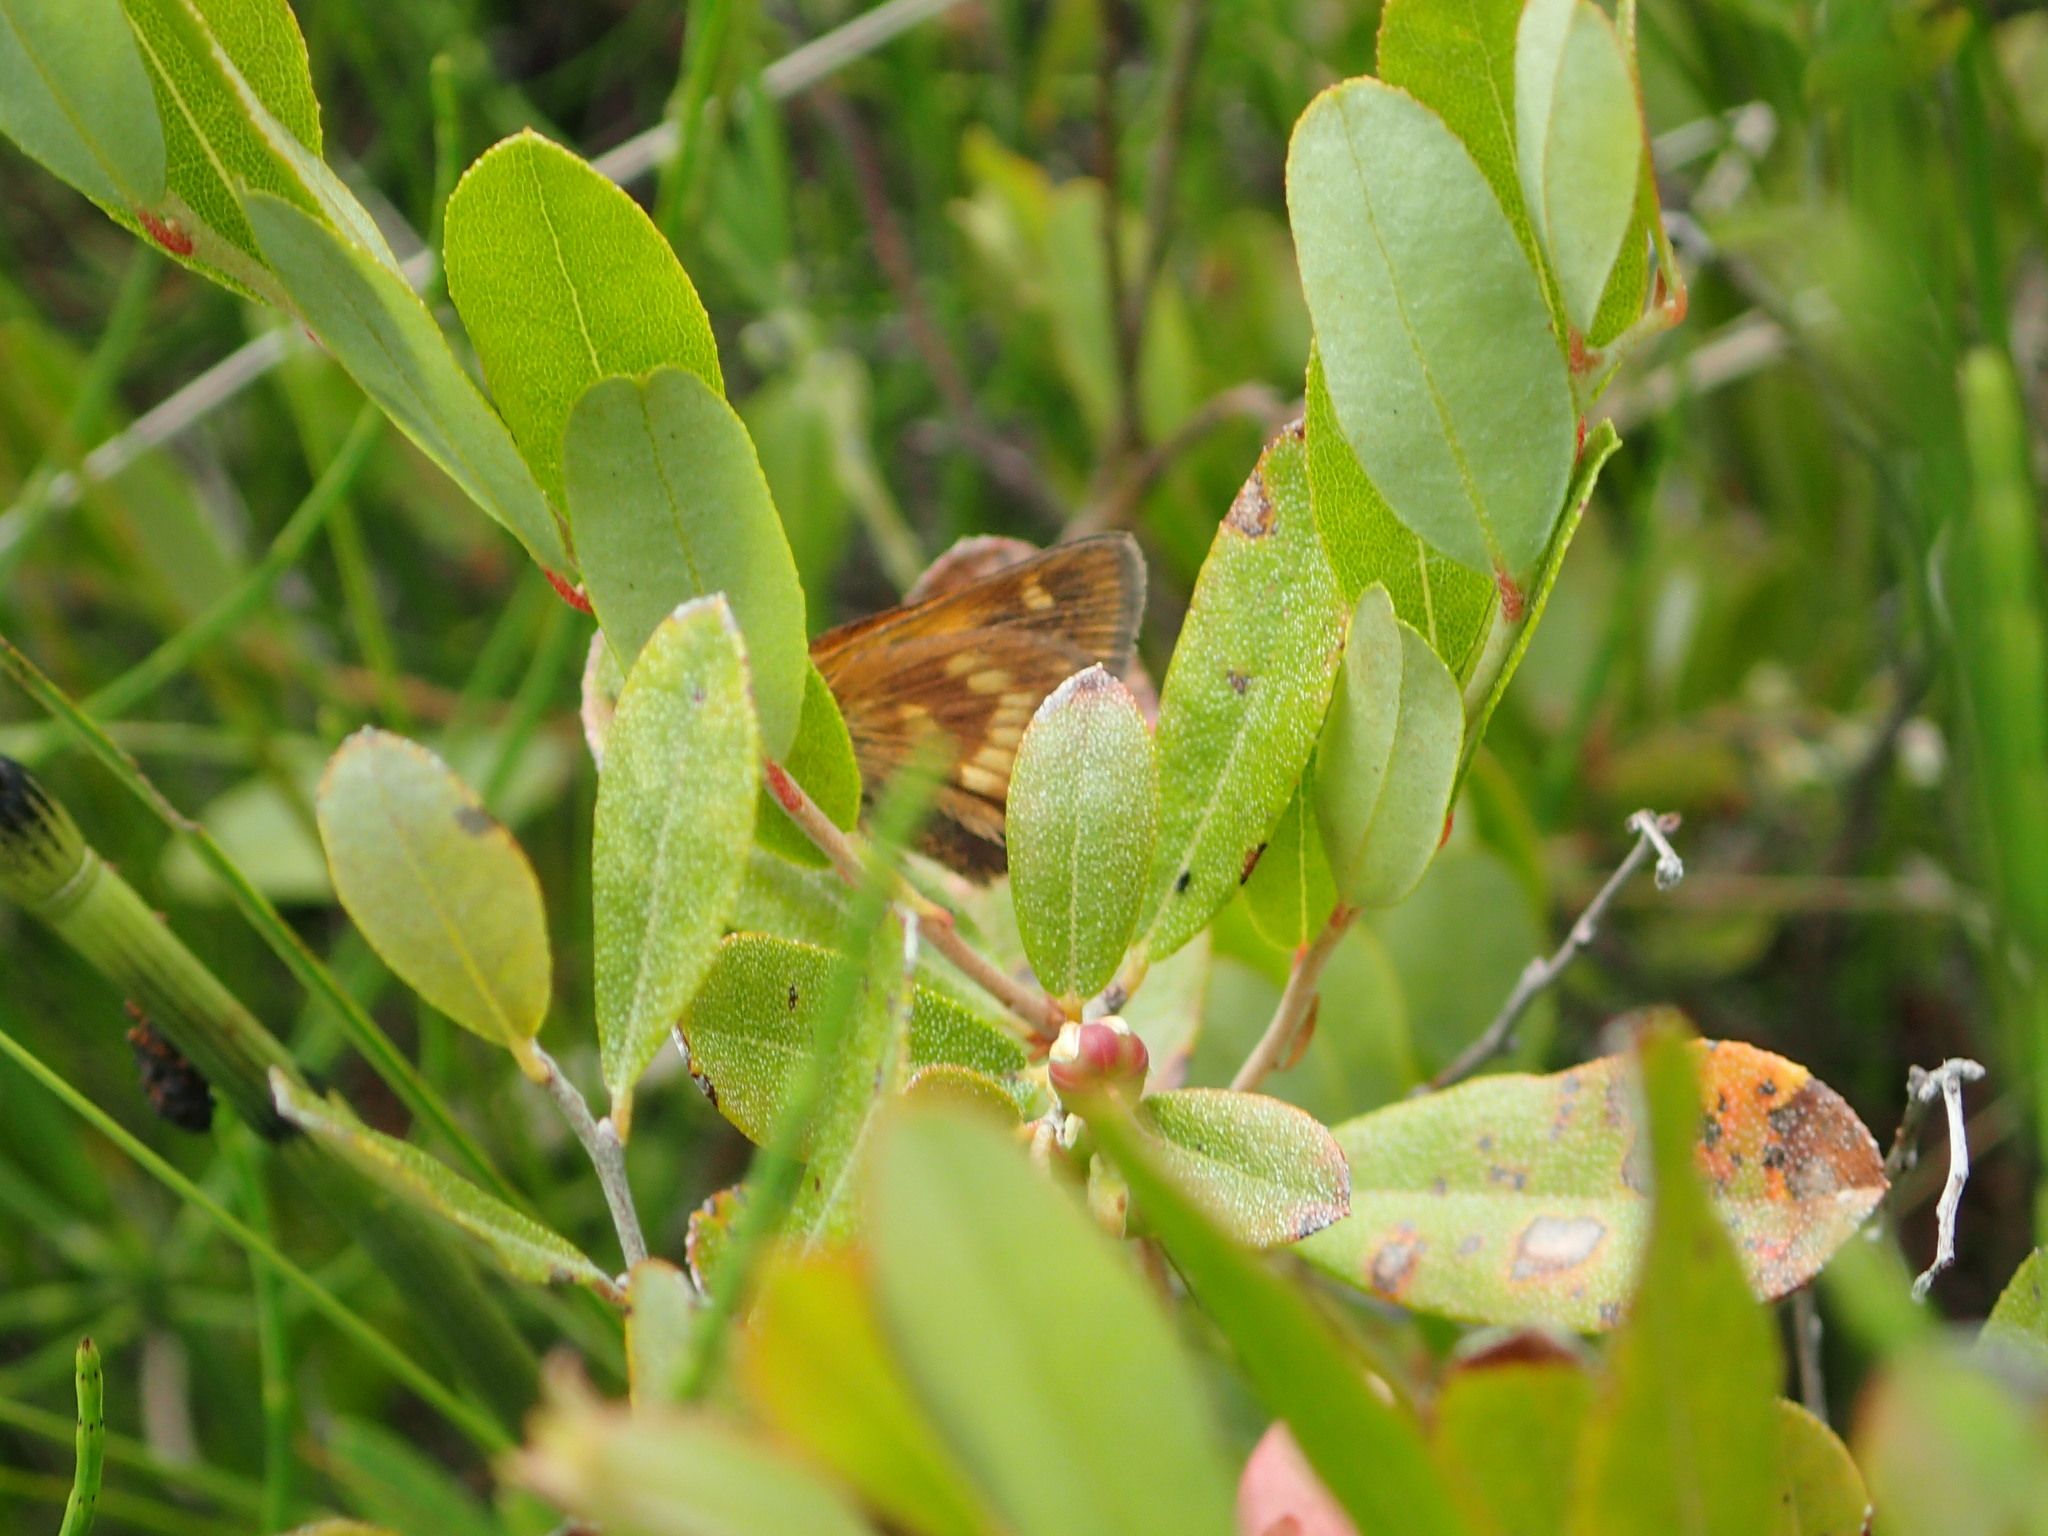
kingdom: Animalia
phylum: Arthropoda
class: Insecta
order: Lepidoptera
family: Hesperiidae
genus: Polites
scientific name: Polites mystic
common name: Long dash
